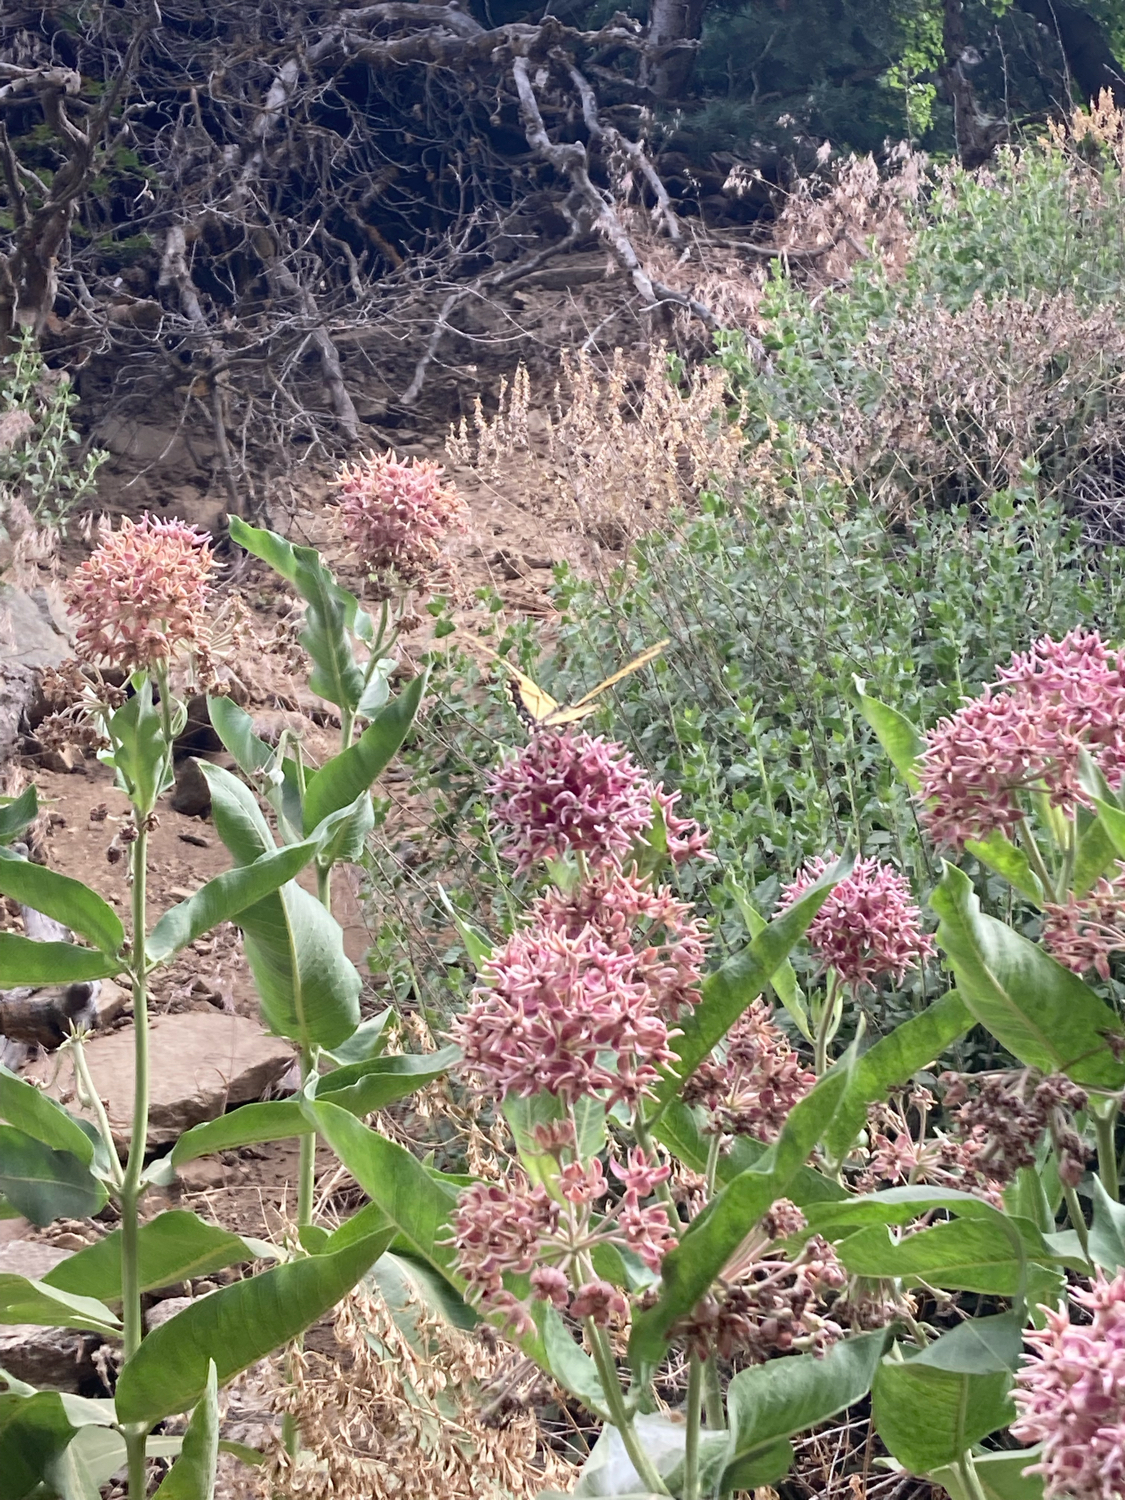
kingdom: Animalia
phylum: Arthropoda
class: Insecta
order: Lepidoptera
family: Papilionidae
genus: Papilio
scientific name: Papilio multicaudata
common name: Two-tailed tiger swallowtail
